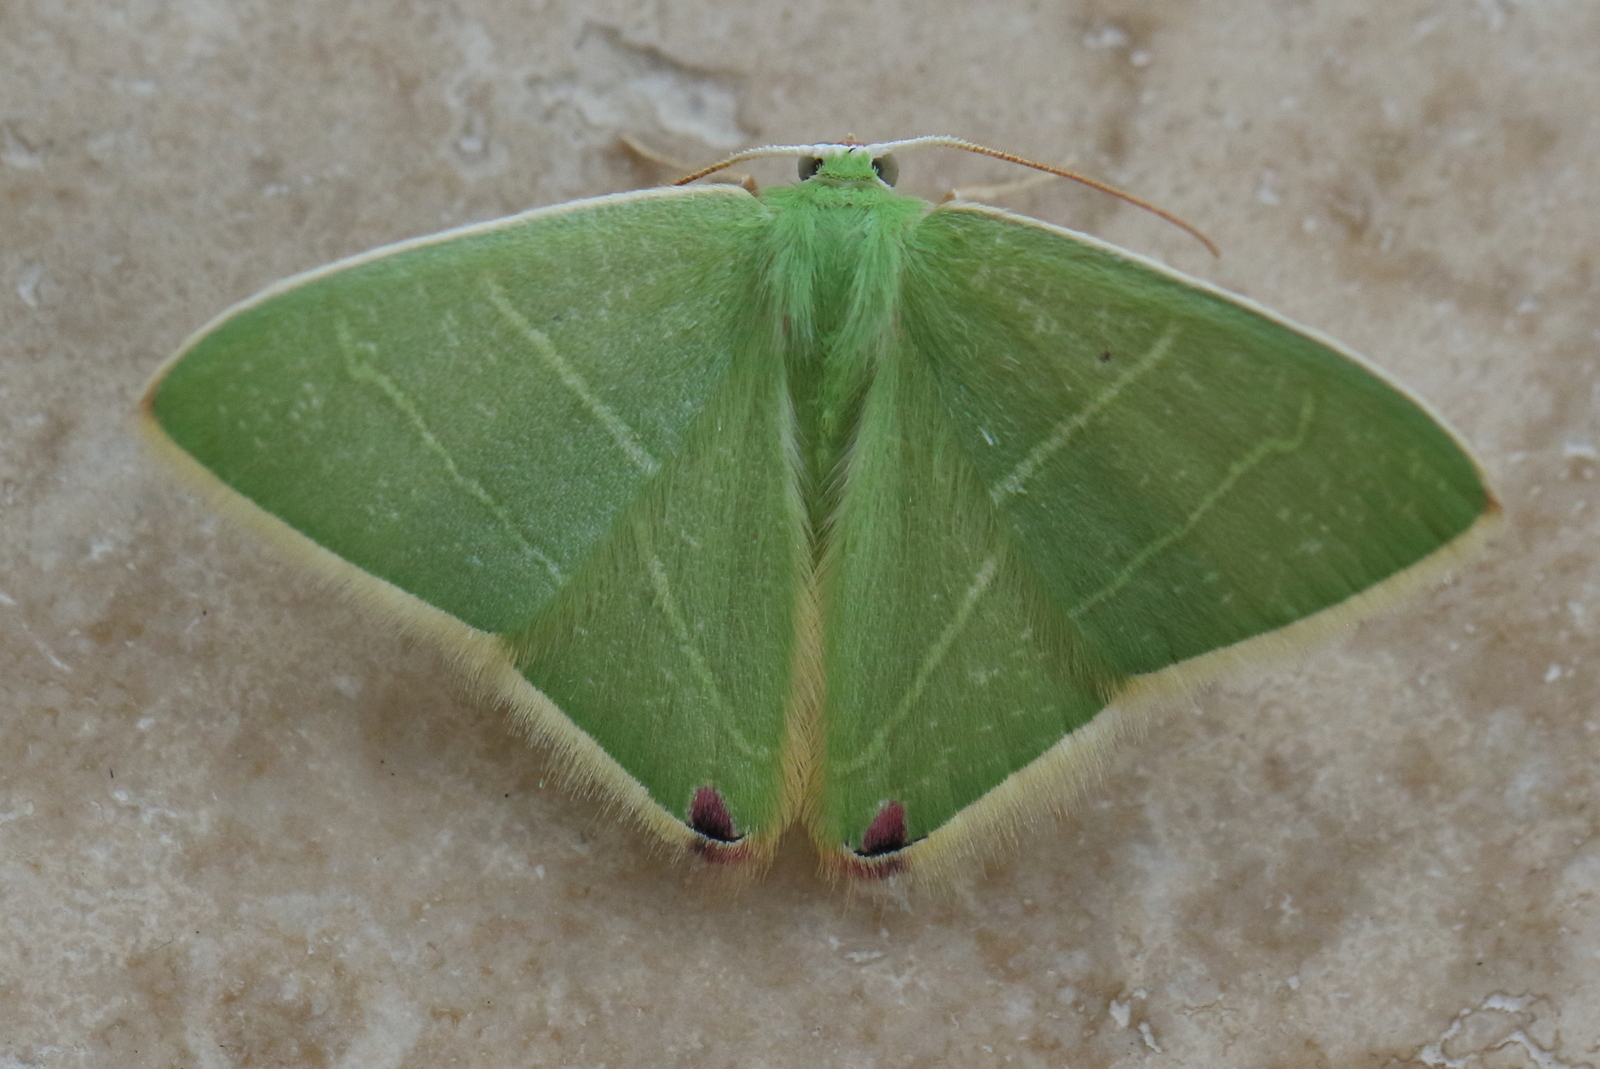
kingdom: Animalia
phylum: Arthropoda
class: Insecta
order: Lepidoptera
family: Geometridae
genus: Urolitha
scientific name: Urolitha bipunctifera
